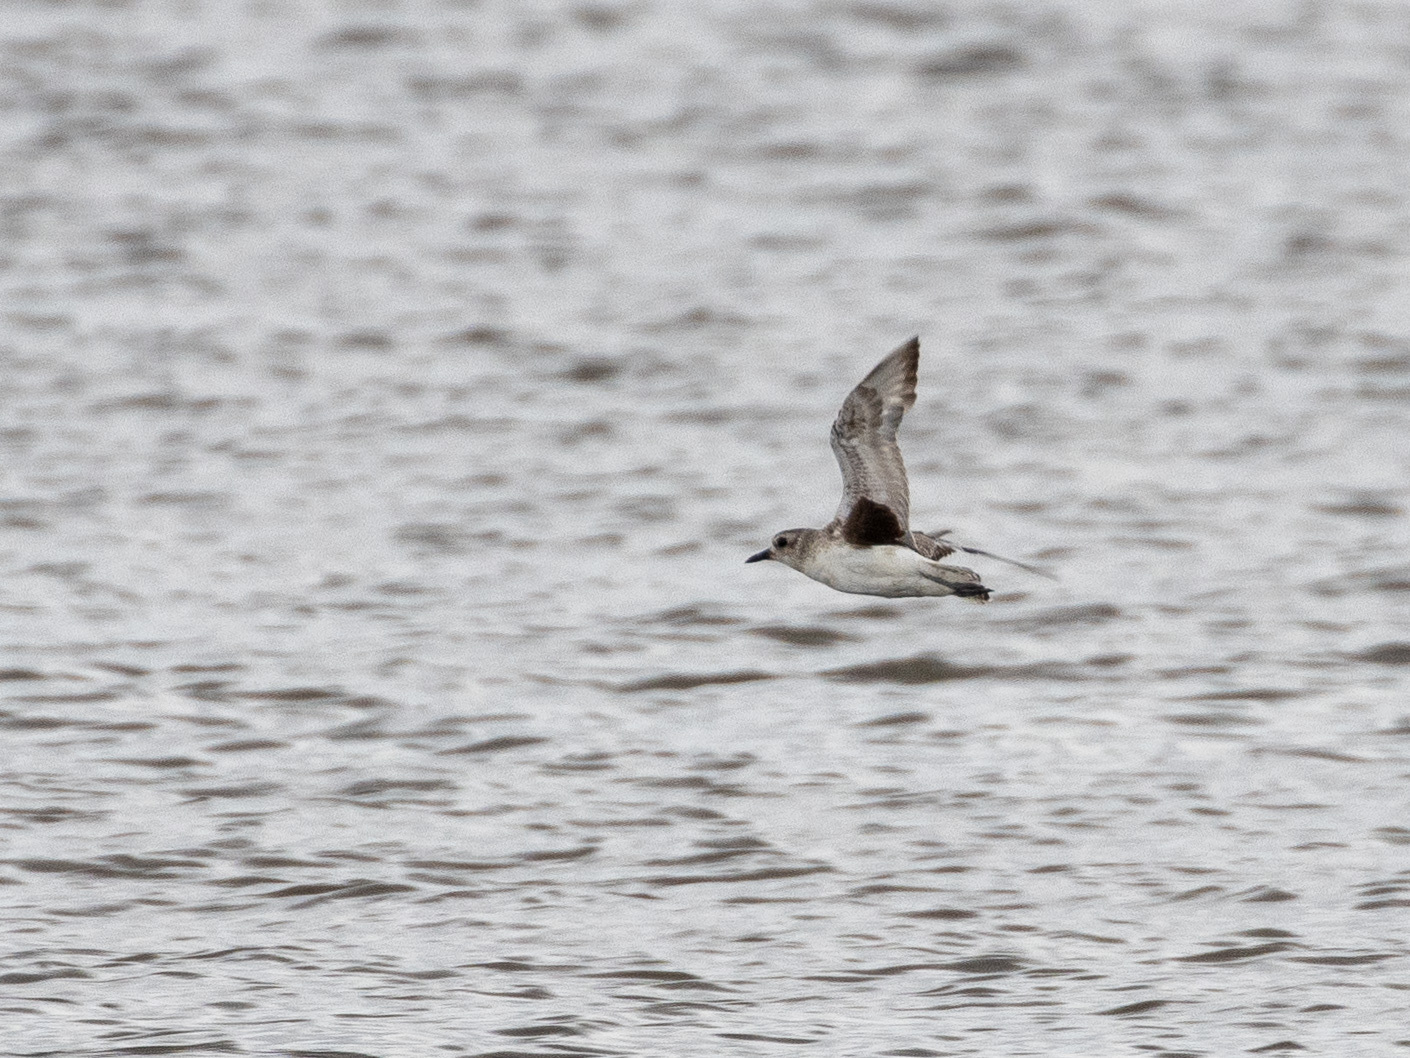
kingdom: Animalia
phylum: Chordata
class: Aves
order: Charadriiformes
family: Charadriidae
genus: Pluvialis
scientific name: Pluvialis squatarola
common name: Grey plover
